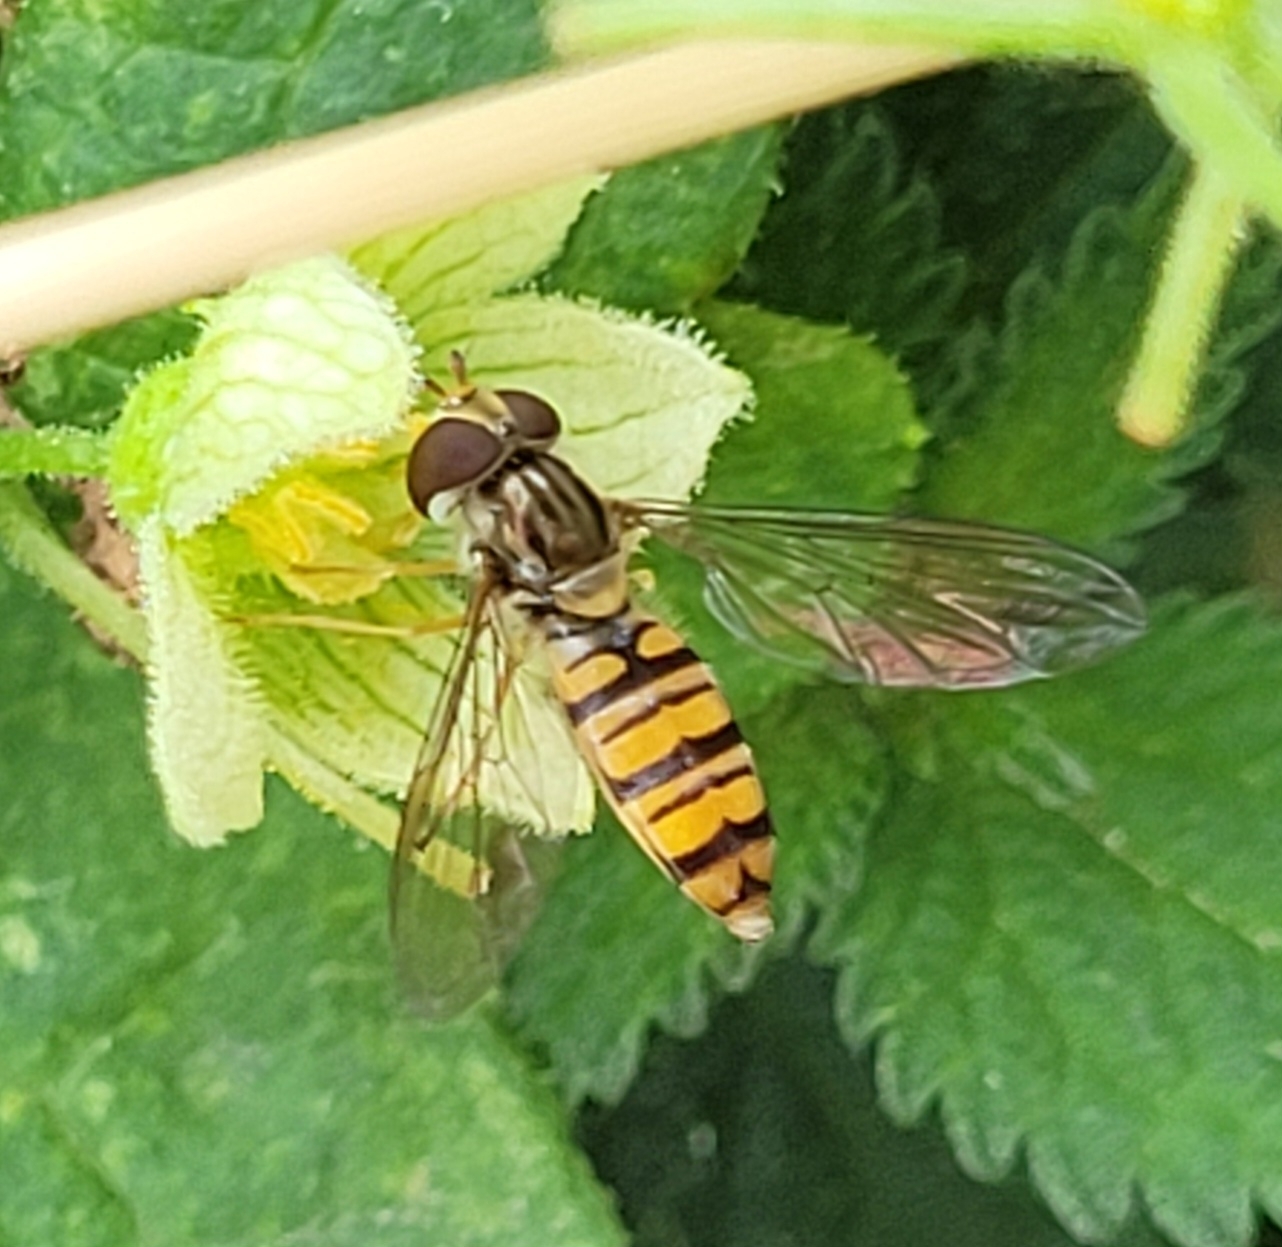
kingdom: Animalia
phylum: Arthropoda
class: Insecta
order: Diptera
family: Syrphidae
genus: Episyrphus
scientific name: Episyrphus balteatus
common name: Marmalade hoverfly
